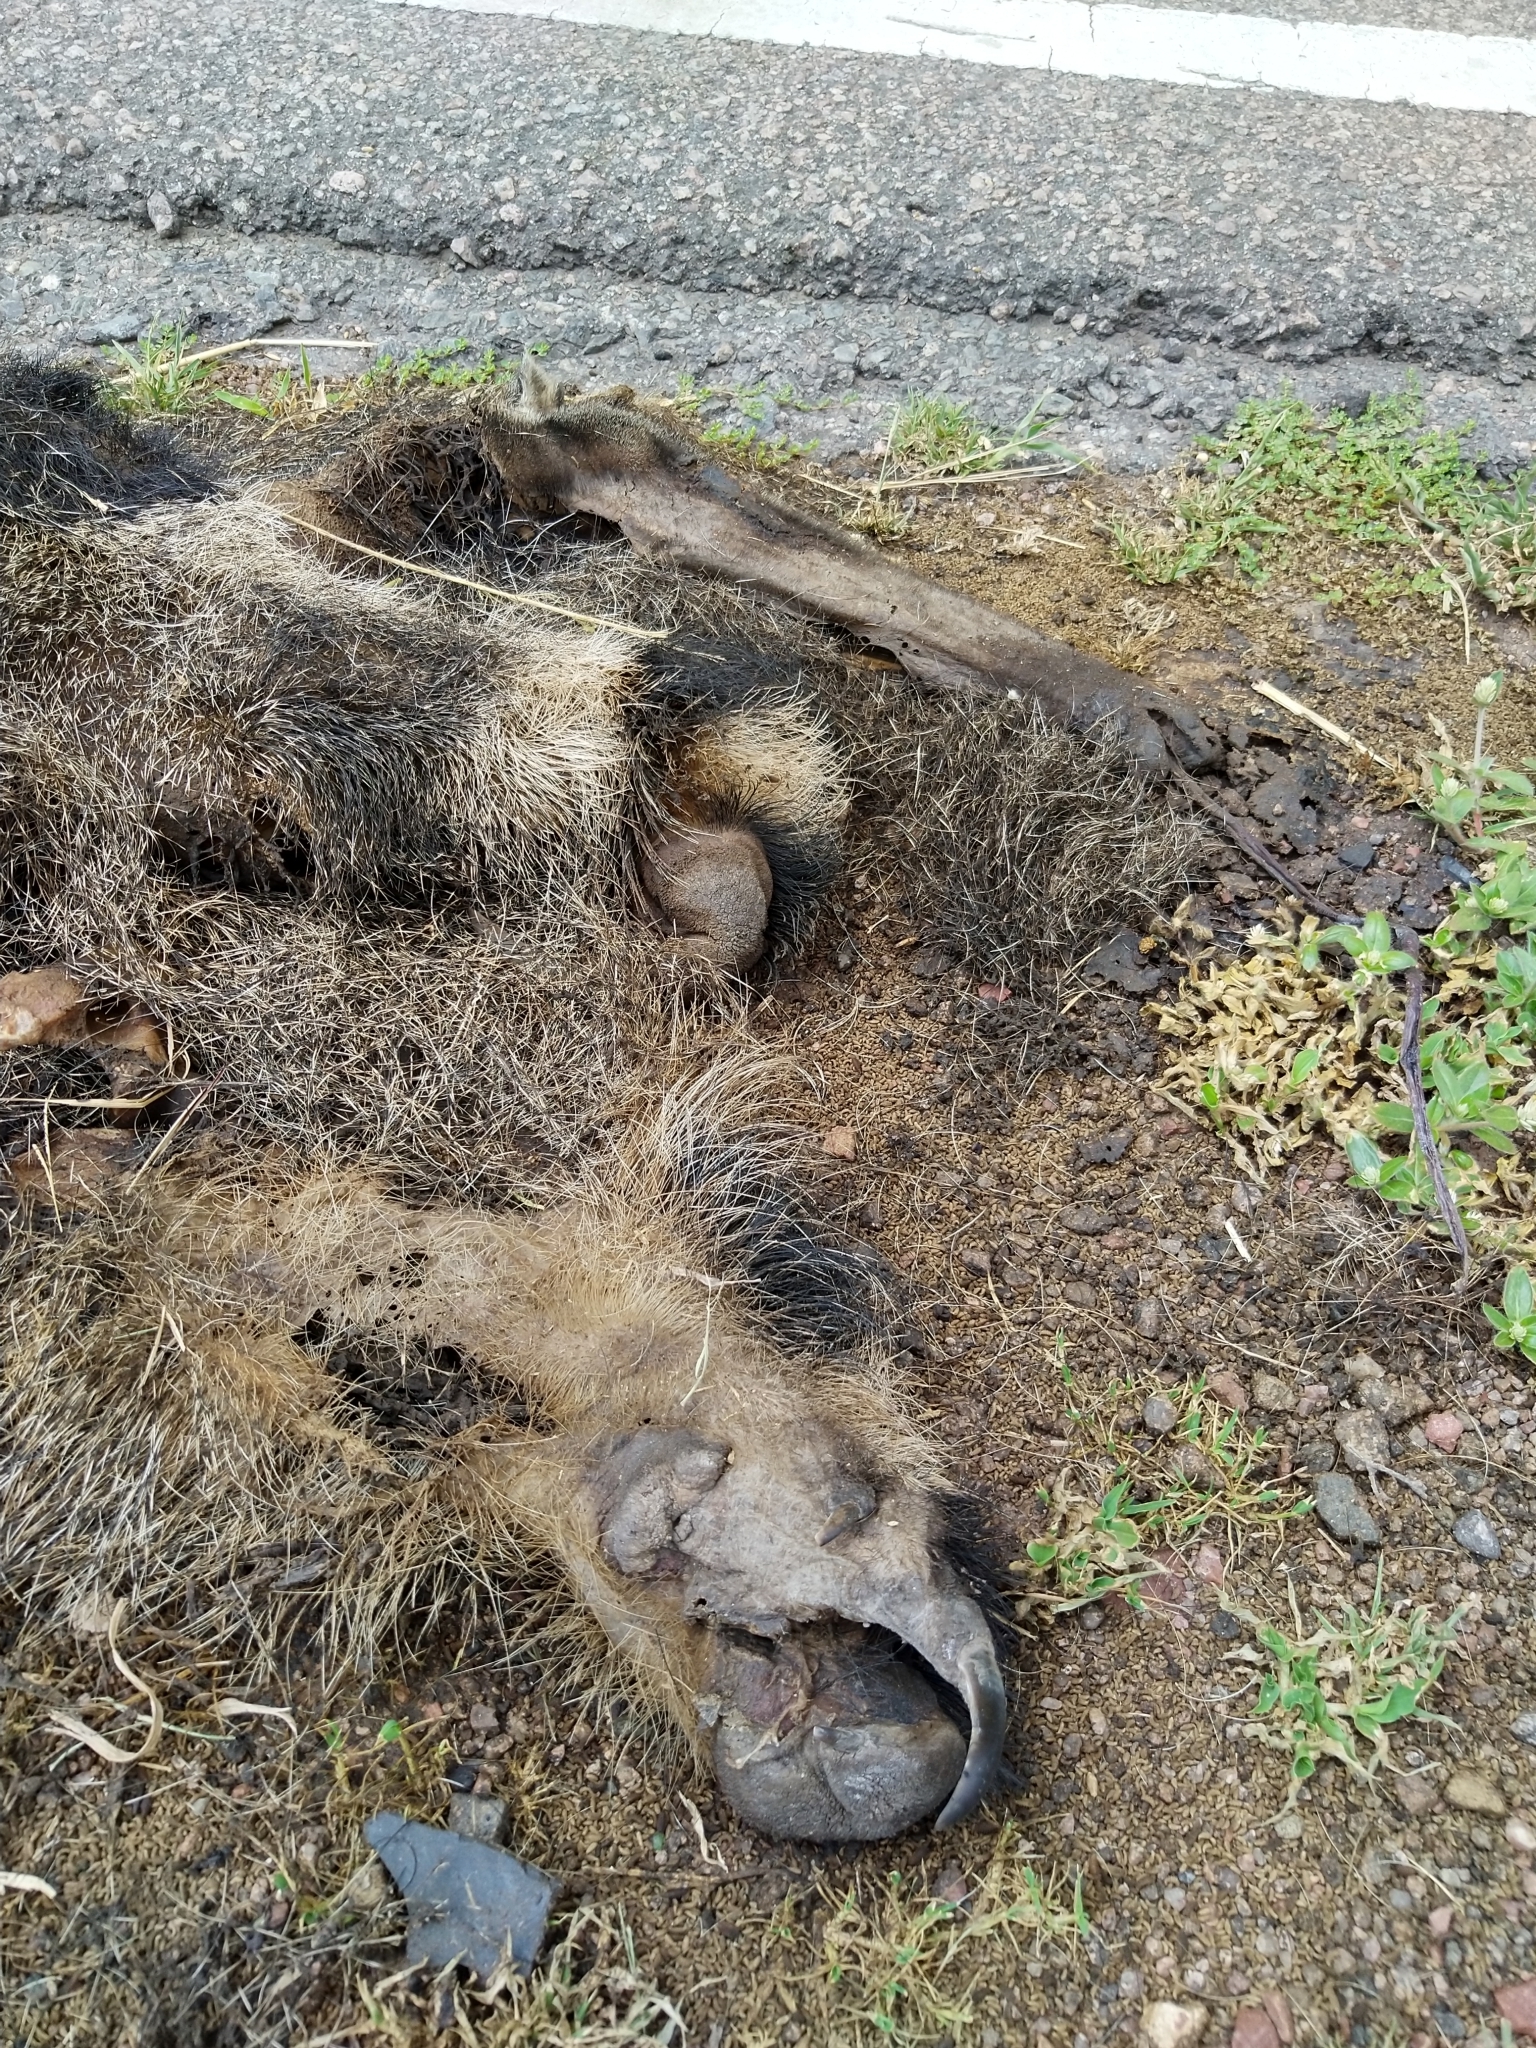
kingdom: Animalia
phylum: Chordata
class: Mammalia
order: Pilosa
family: Myrmecophagidae
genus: Myrmecophaga
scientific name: Myrmecophaga tridactyla
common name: Giant anteater
